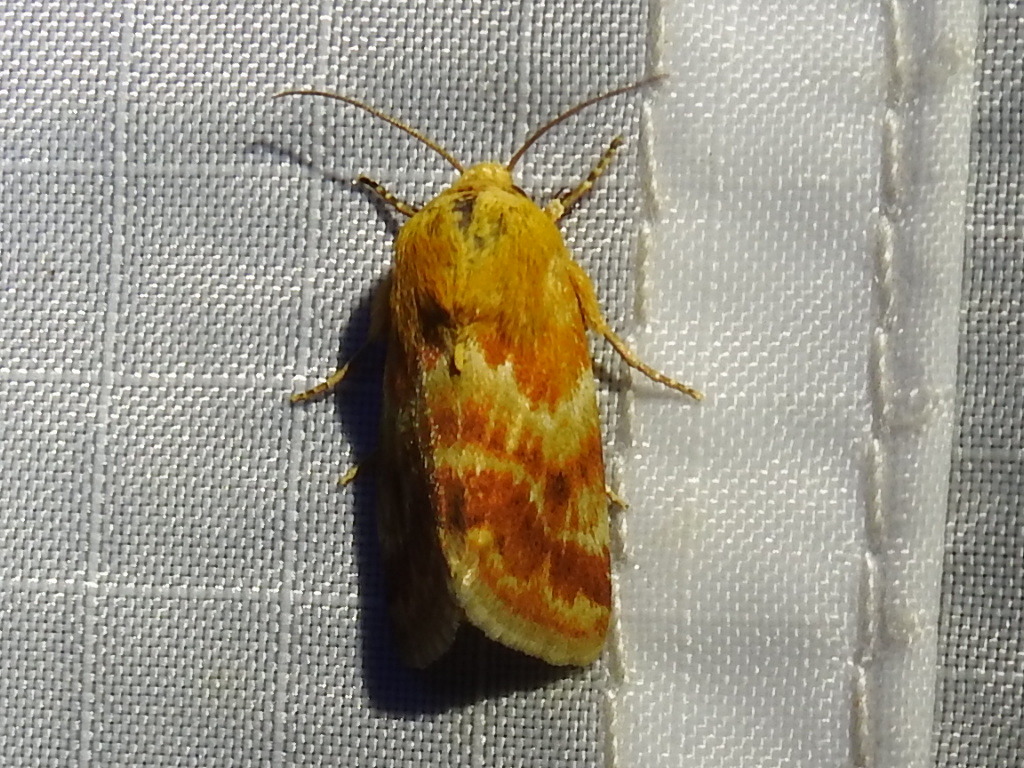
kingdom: Animalia
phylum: Arthropoda
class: Insecta
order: Lepidoptera
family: Noctuidae
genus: Schinia
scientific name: Schinia siren
